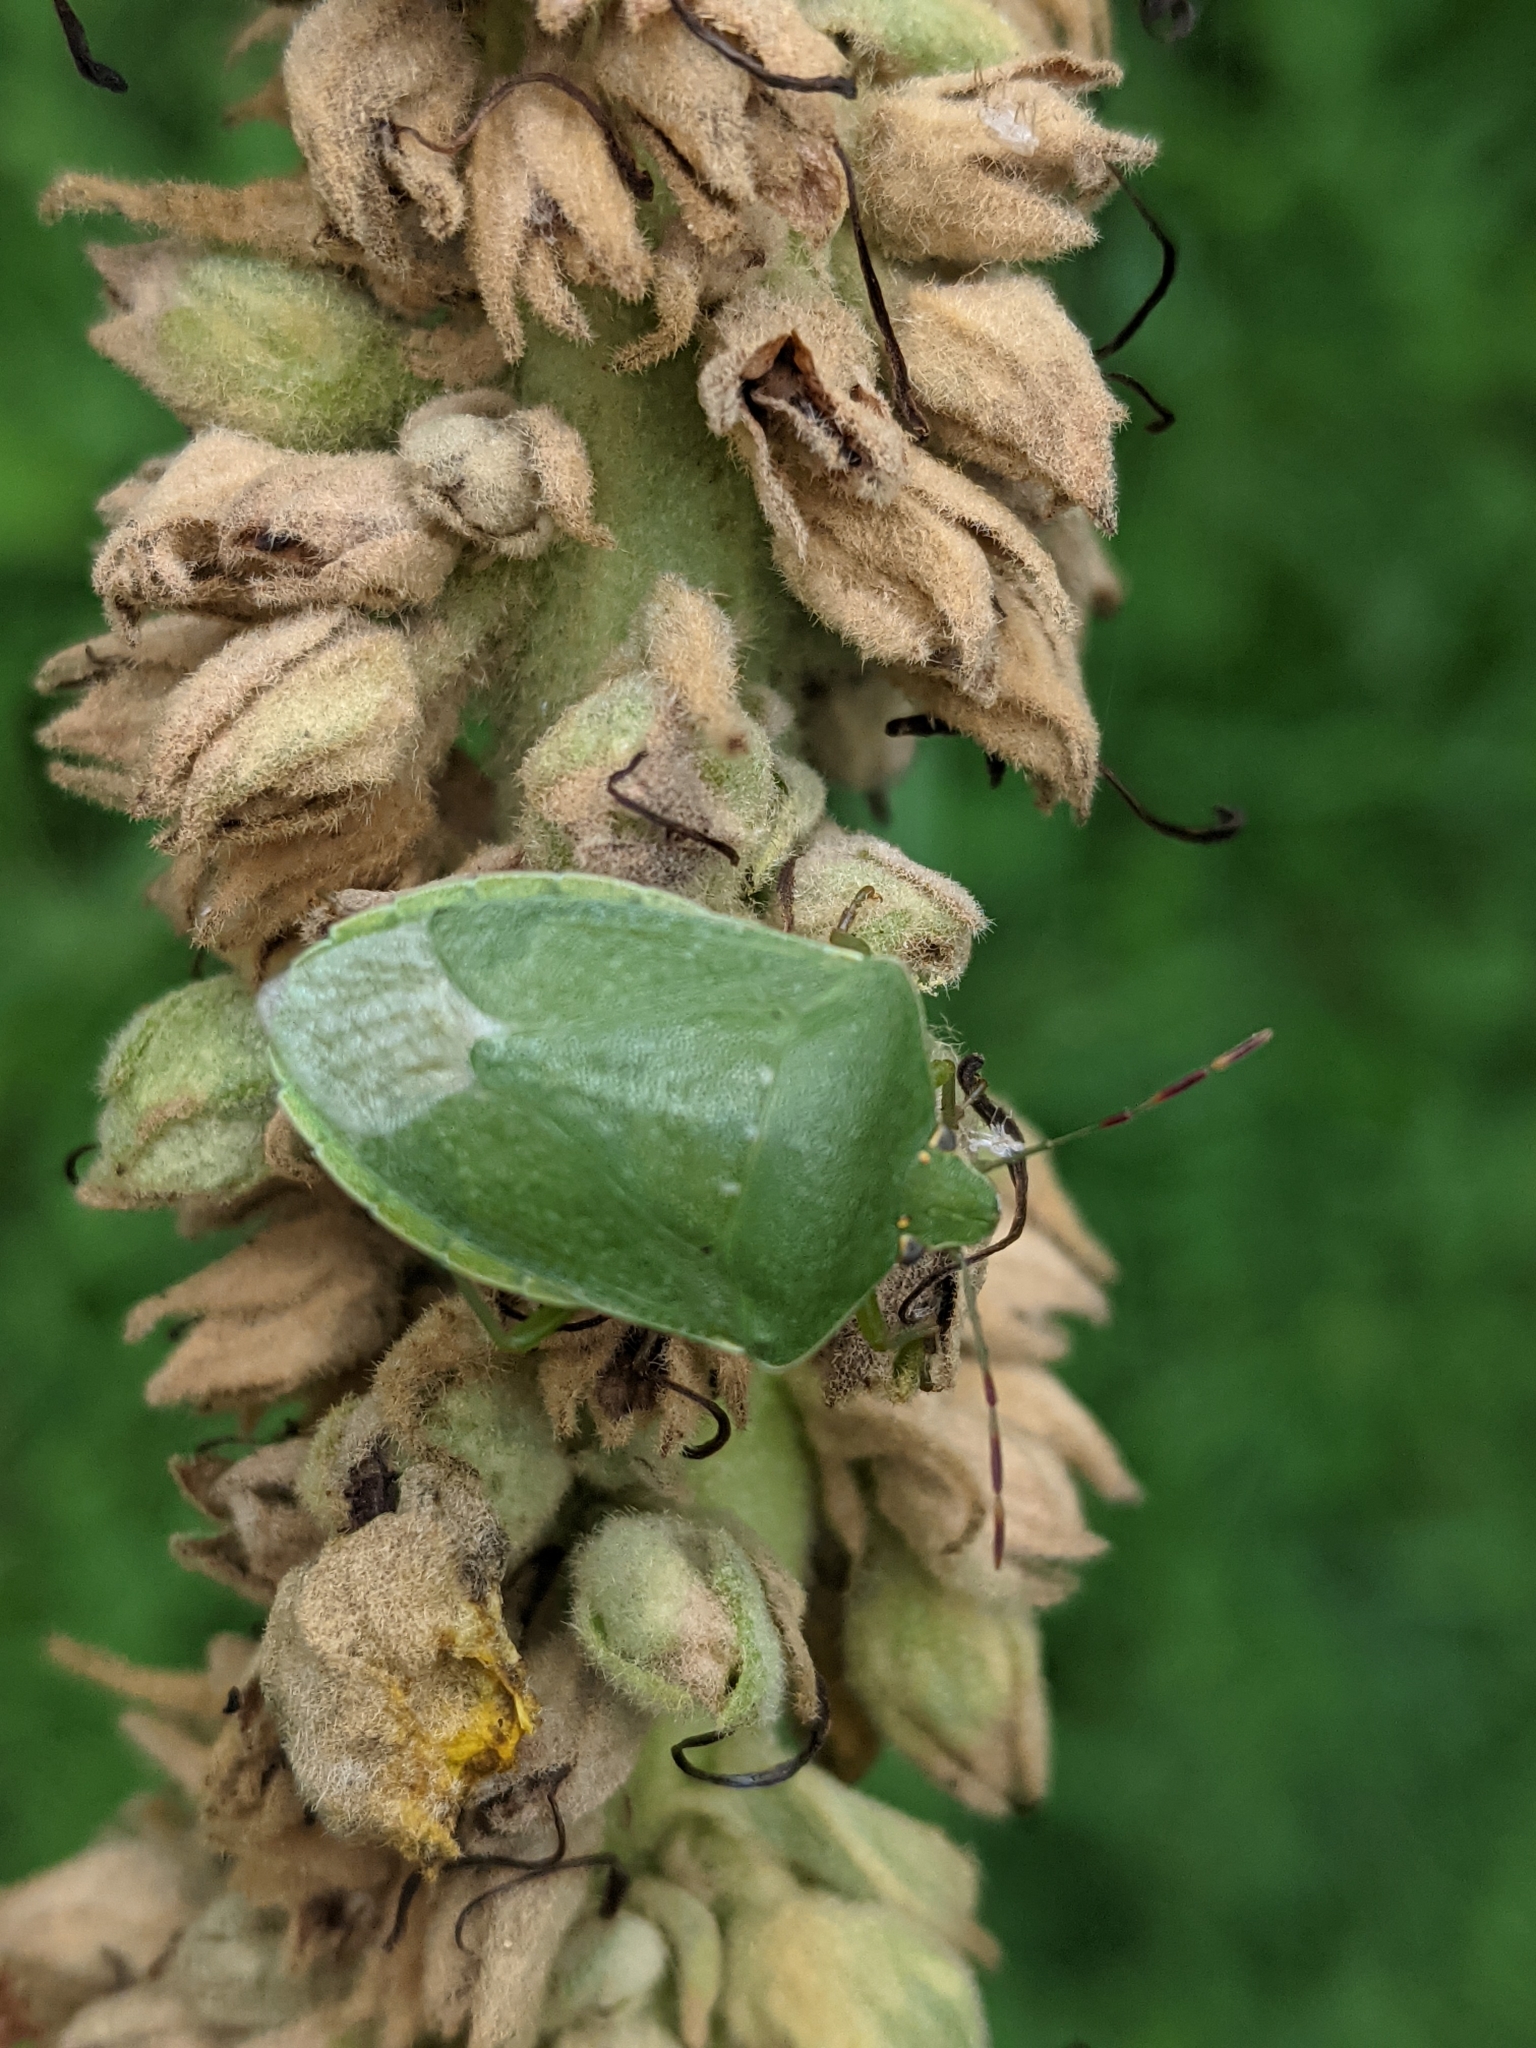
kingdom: Animalia
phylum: Arthropoda
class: Insecta
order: Hemiptera
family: Pentatomidae
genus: Nezara
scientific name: Nezara viridula
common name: Southern green stink bug
